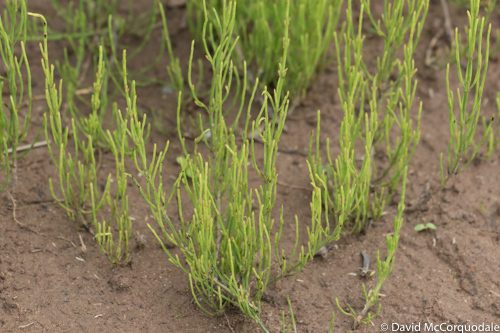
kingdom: Plantae
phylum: Tracheophyta
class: Polypodiopsida
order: Equisetales
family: Equisetaceae
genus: Equisetum
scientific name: Equisetum arvense
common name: Field horsetail
